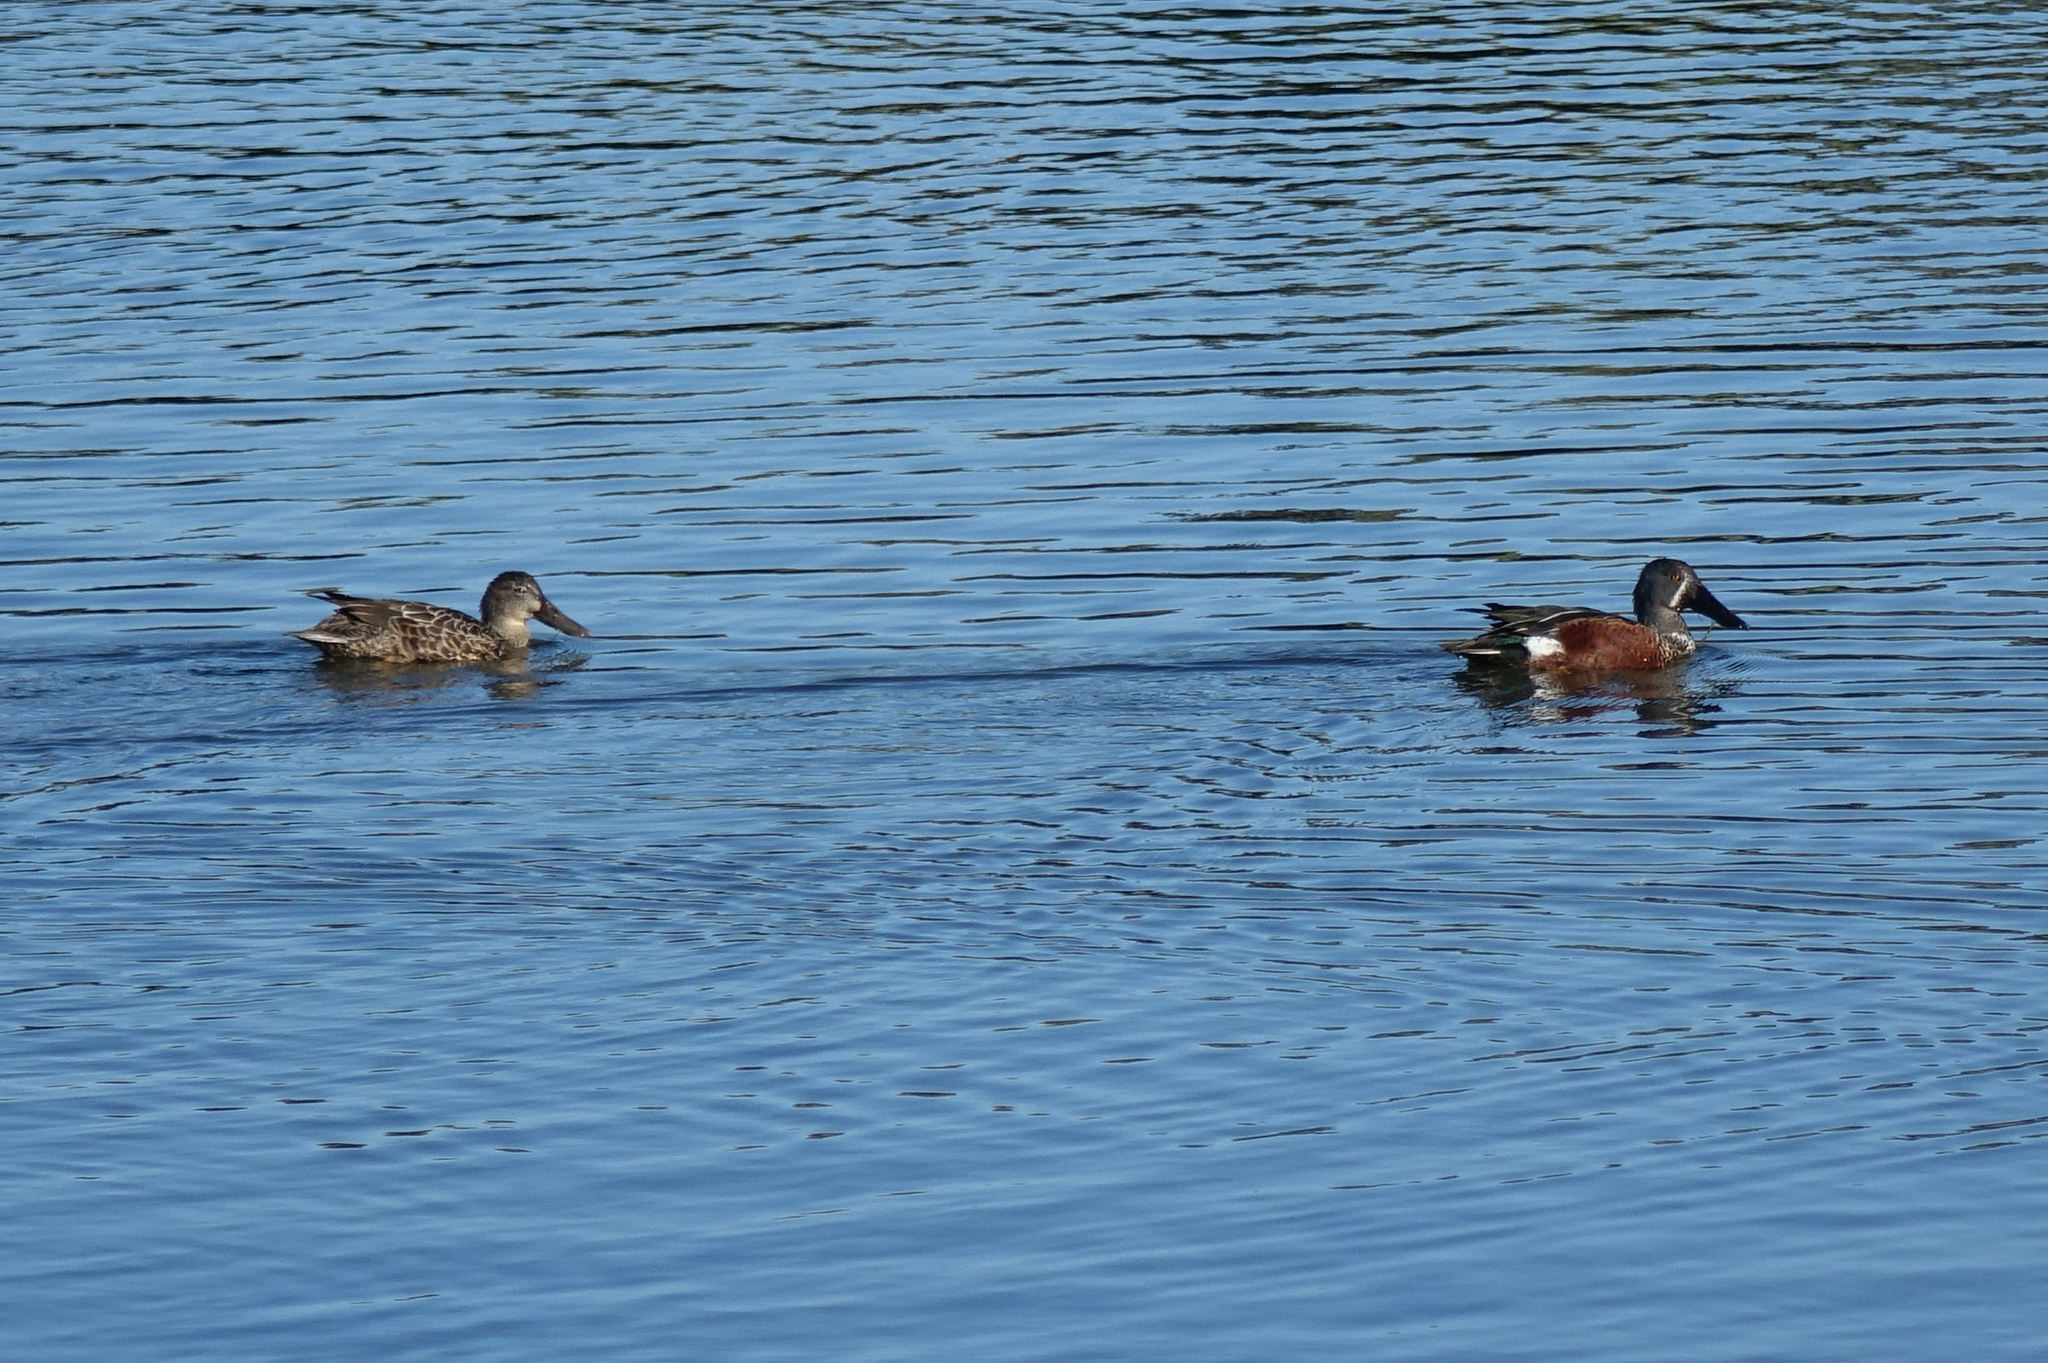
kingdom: Animalia
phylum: Chordata
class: Aves
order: Anseriformes
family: Anatidae
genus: Spatula
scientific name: Spatula rhynchotis
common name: Australian shoveler
